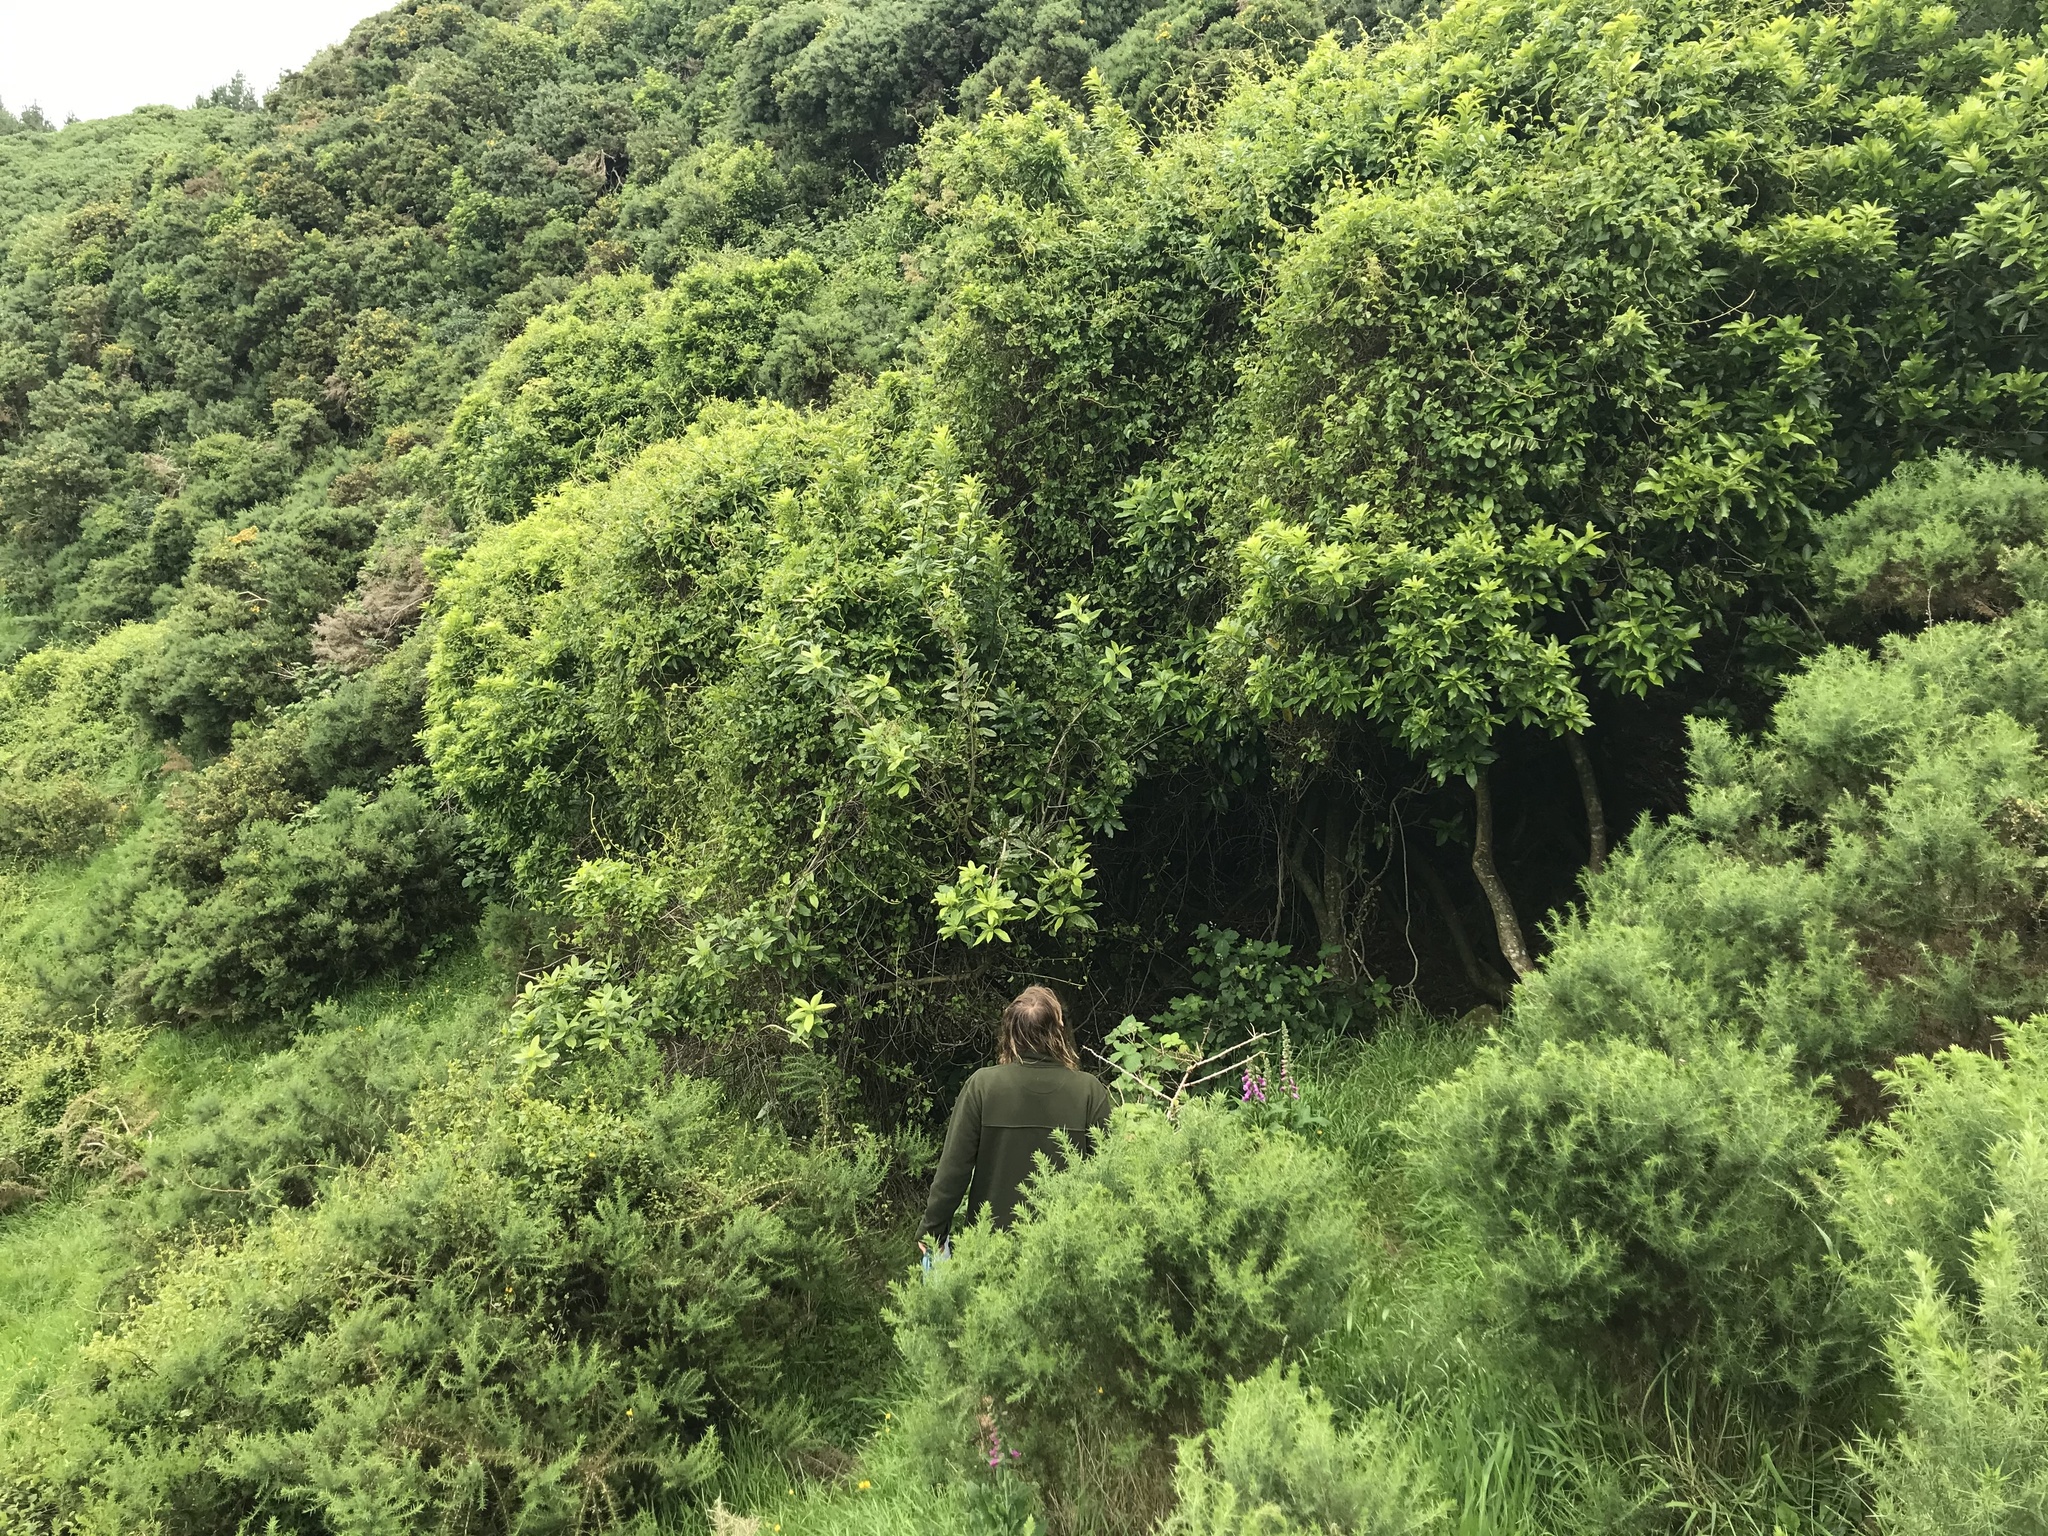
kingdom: Plantae
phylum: Tracheophyta
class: Magnoliopsida
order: Malpighiales
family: Violaceae
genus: Melicytus
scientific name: Melicytus ramiflorus
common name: Mahoe
